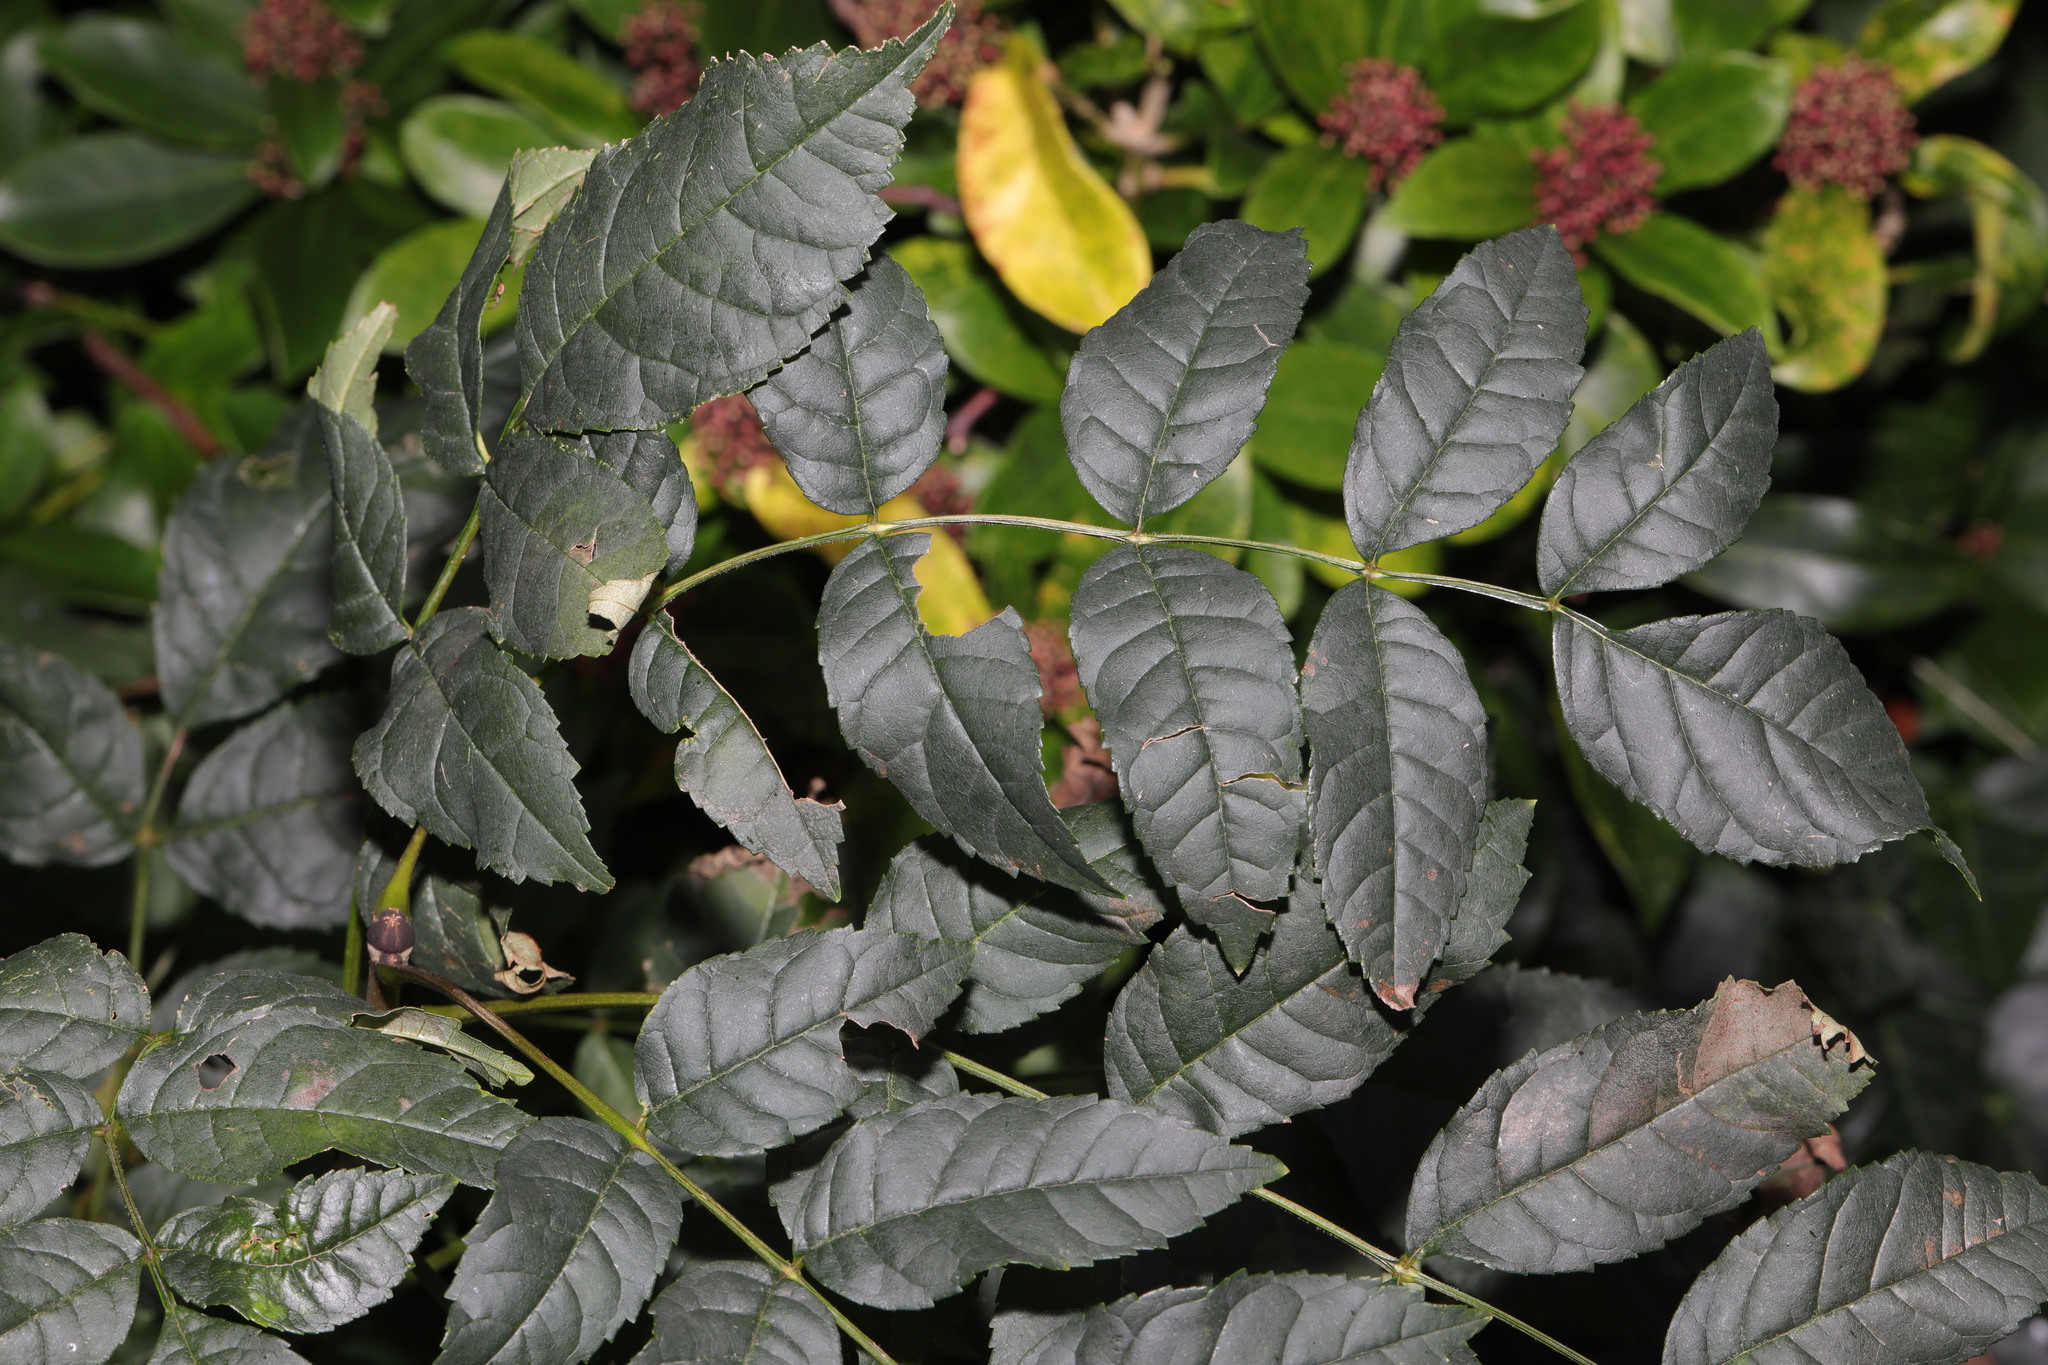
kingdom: Plantae
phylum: Tracheophyta
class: Magnoliopsida
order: Lamiales
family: Oleaceae
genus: Fraxinus
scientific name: Fraxinus excelsior
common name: European ash
